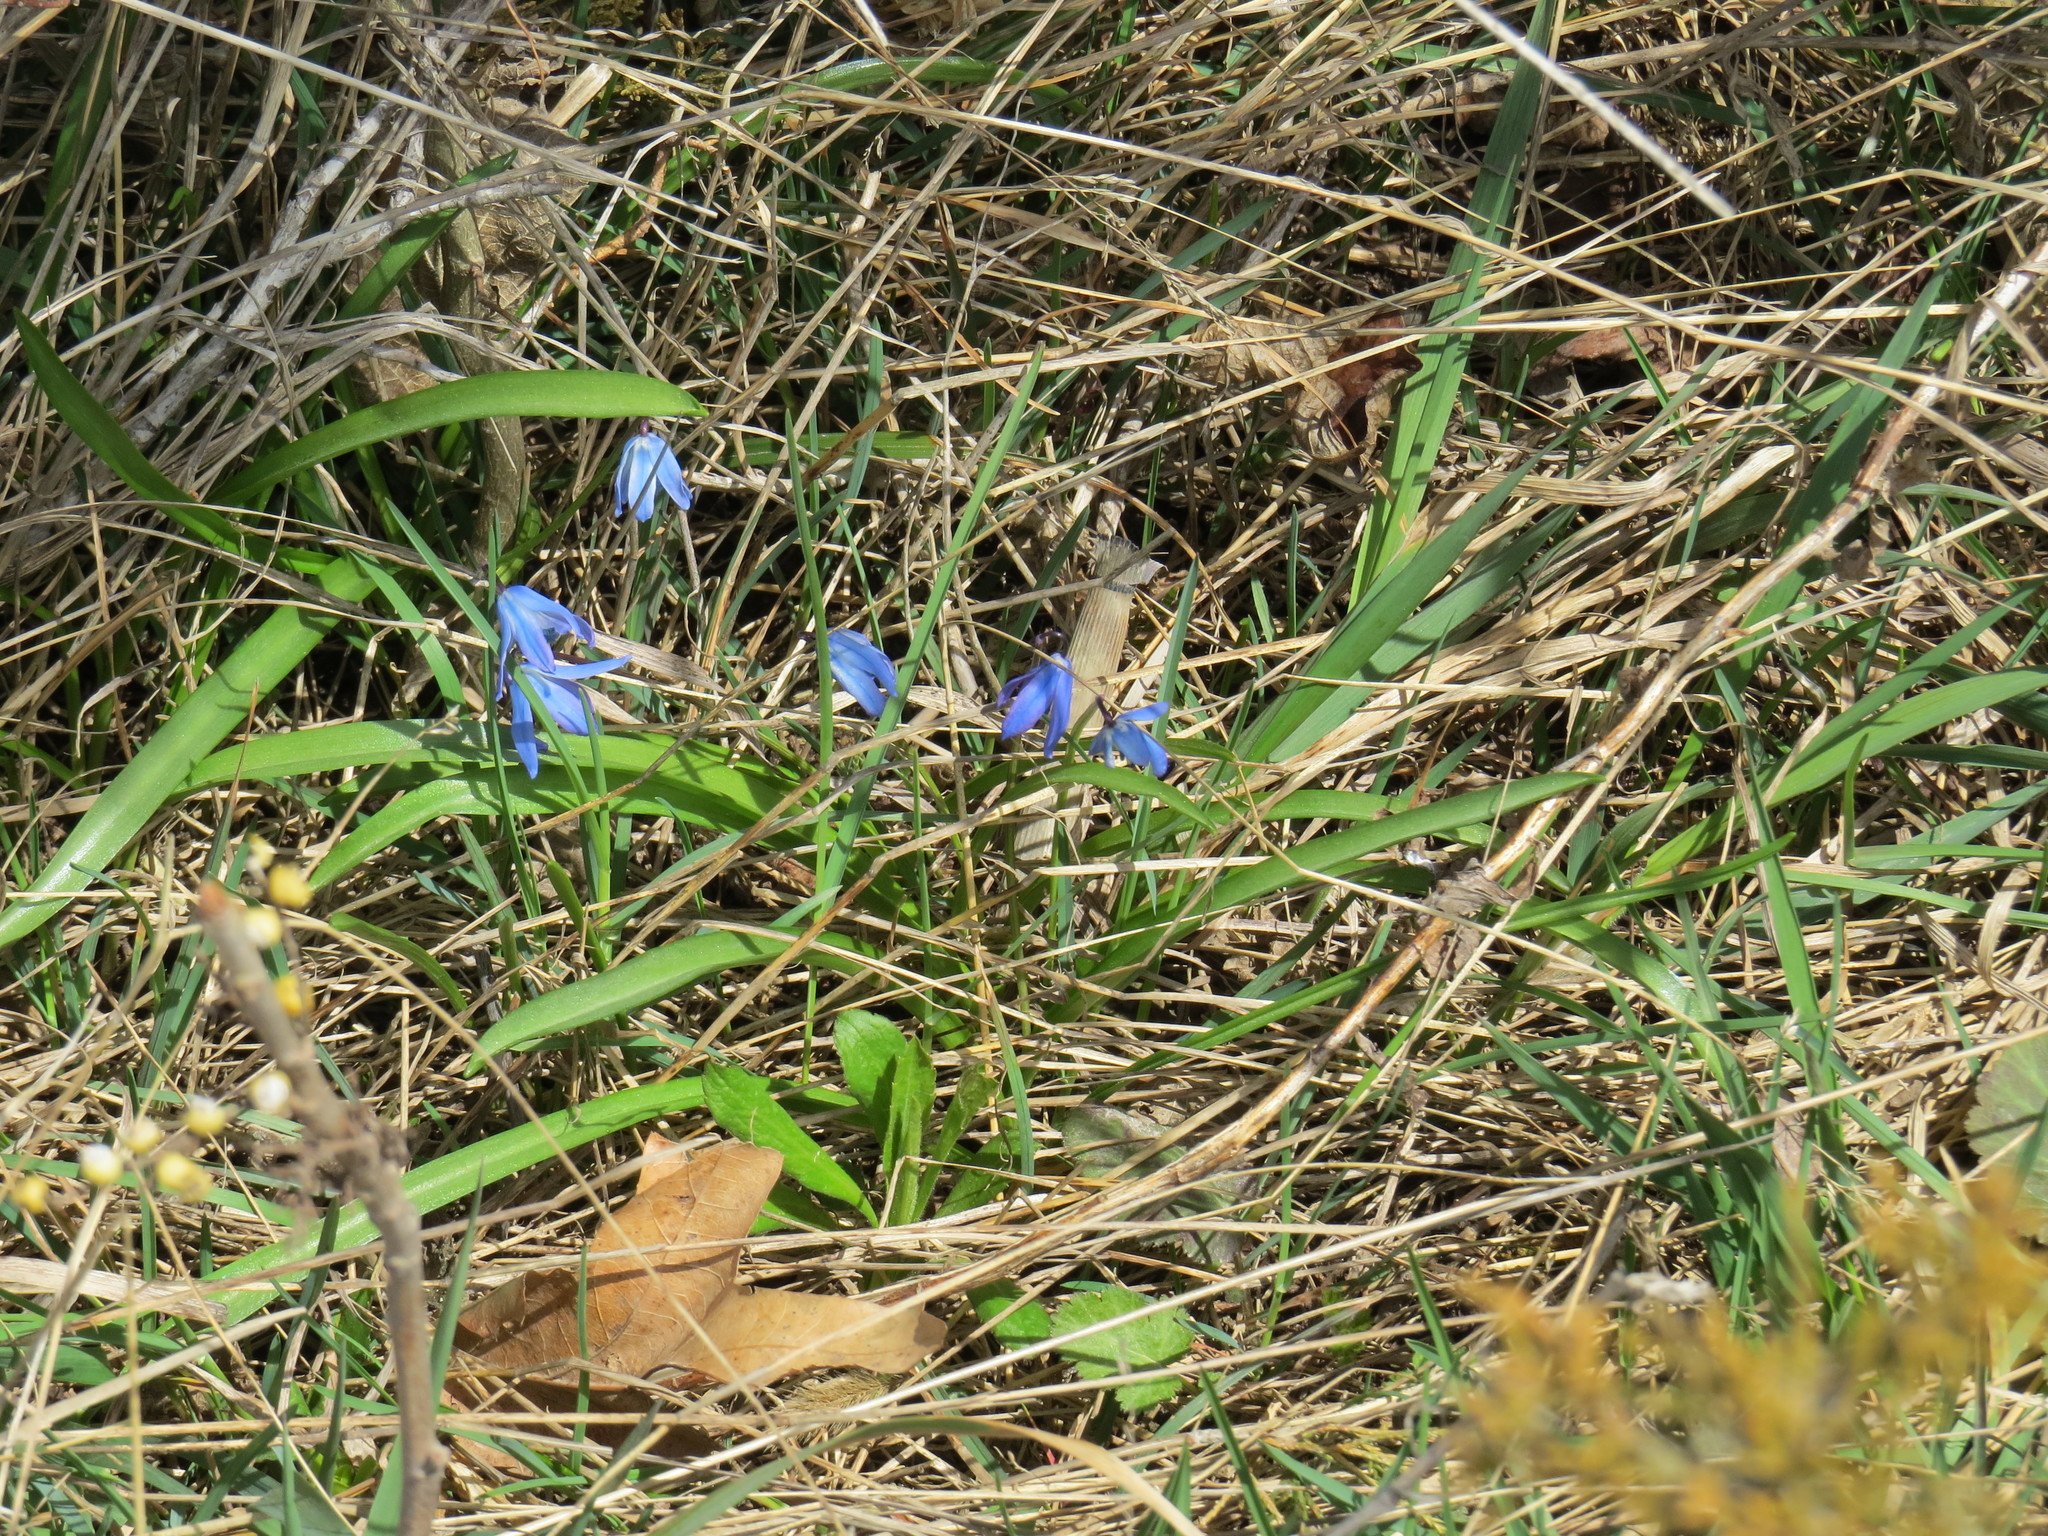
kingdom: Plantae
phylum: Tracheophyta
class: Liliopsida
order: Asparagales
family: Asparagaceae
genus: Scilla
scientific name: Scilla siberica
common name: Siberian squill
